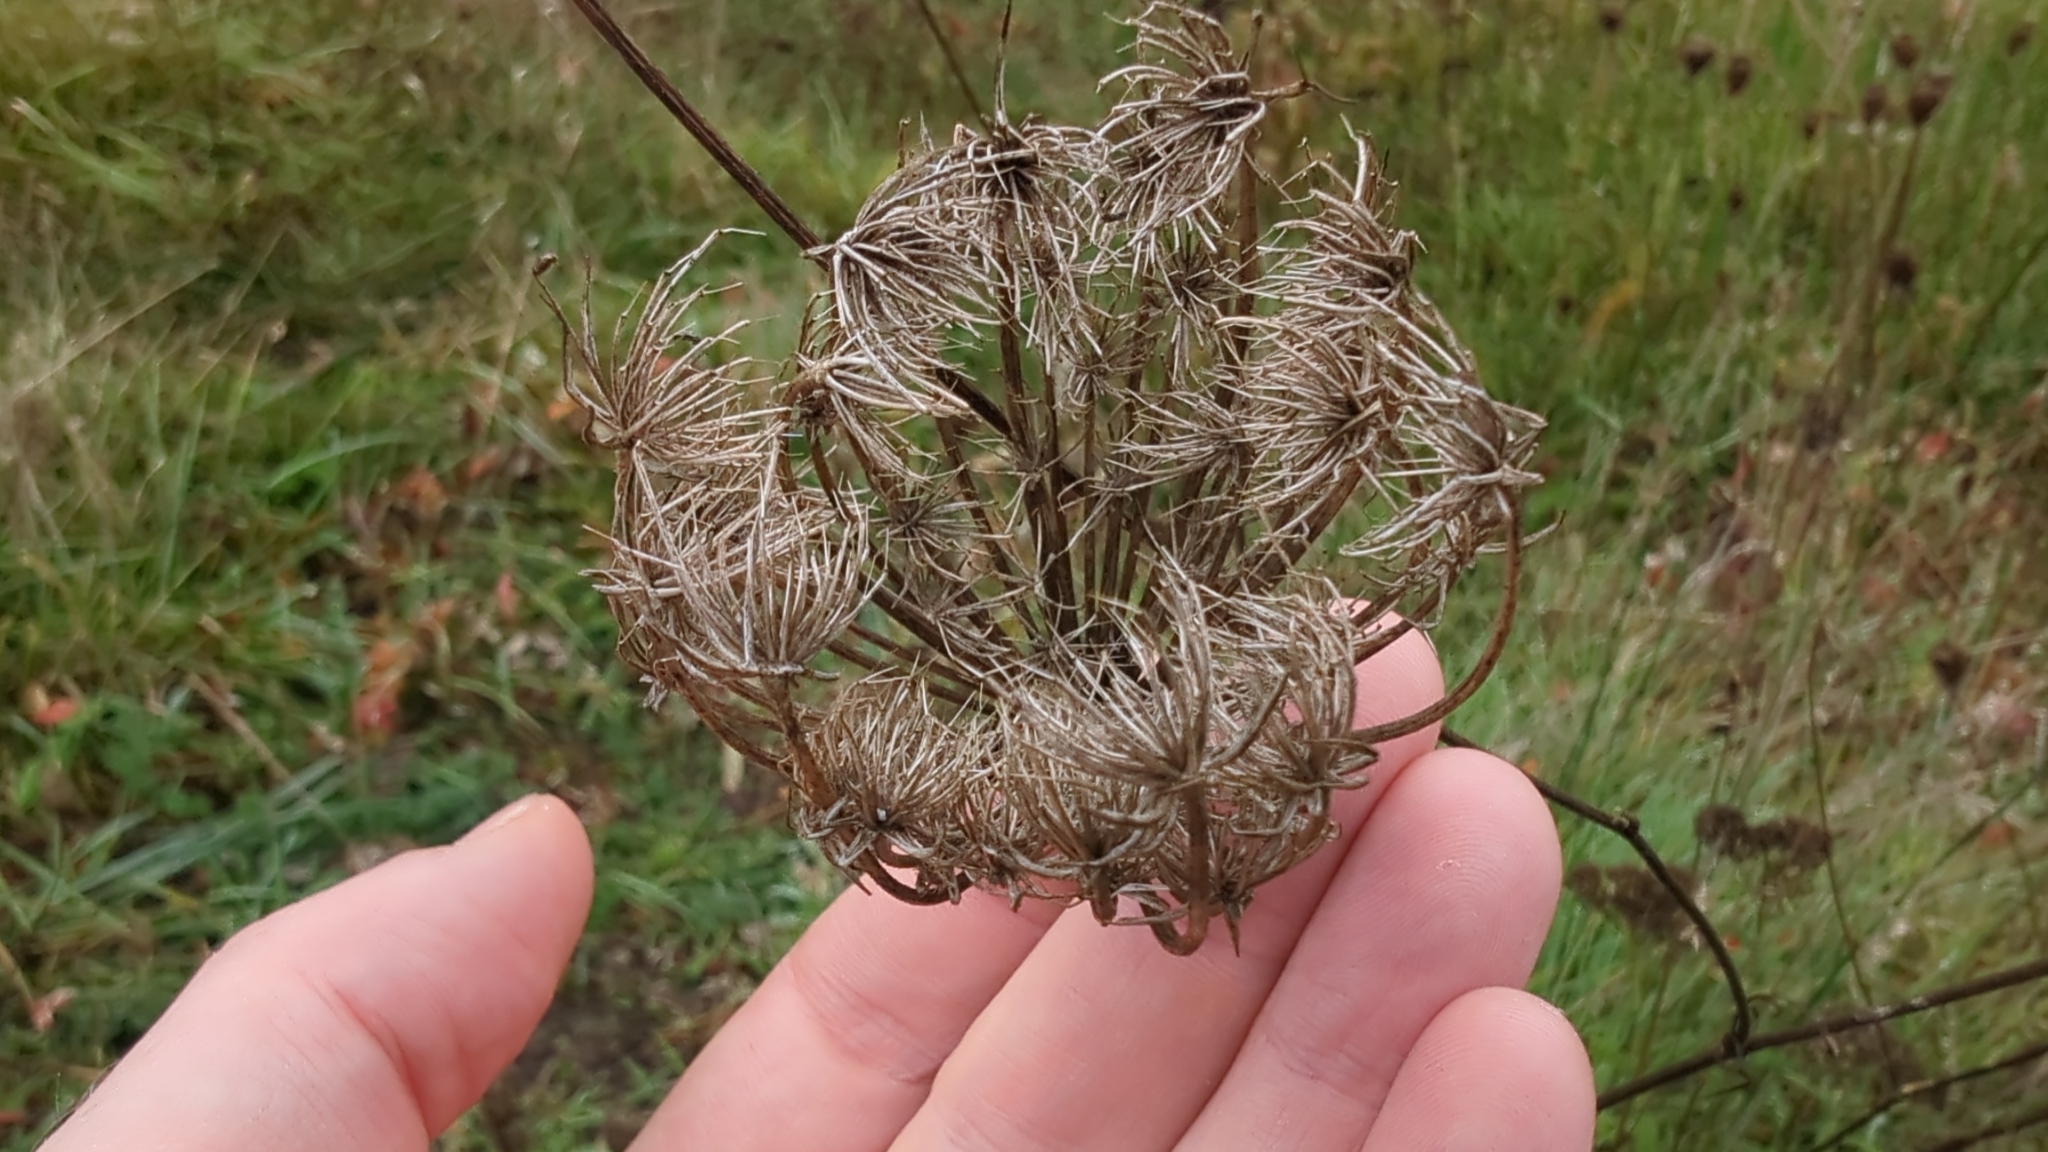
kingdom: Plantae
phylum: Tracheophyta
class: Magnoliopsida
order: Apiales
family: Apiaceae
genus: Daucus
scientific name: Daucus carota
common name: Wild carrot
